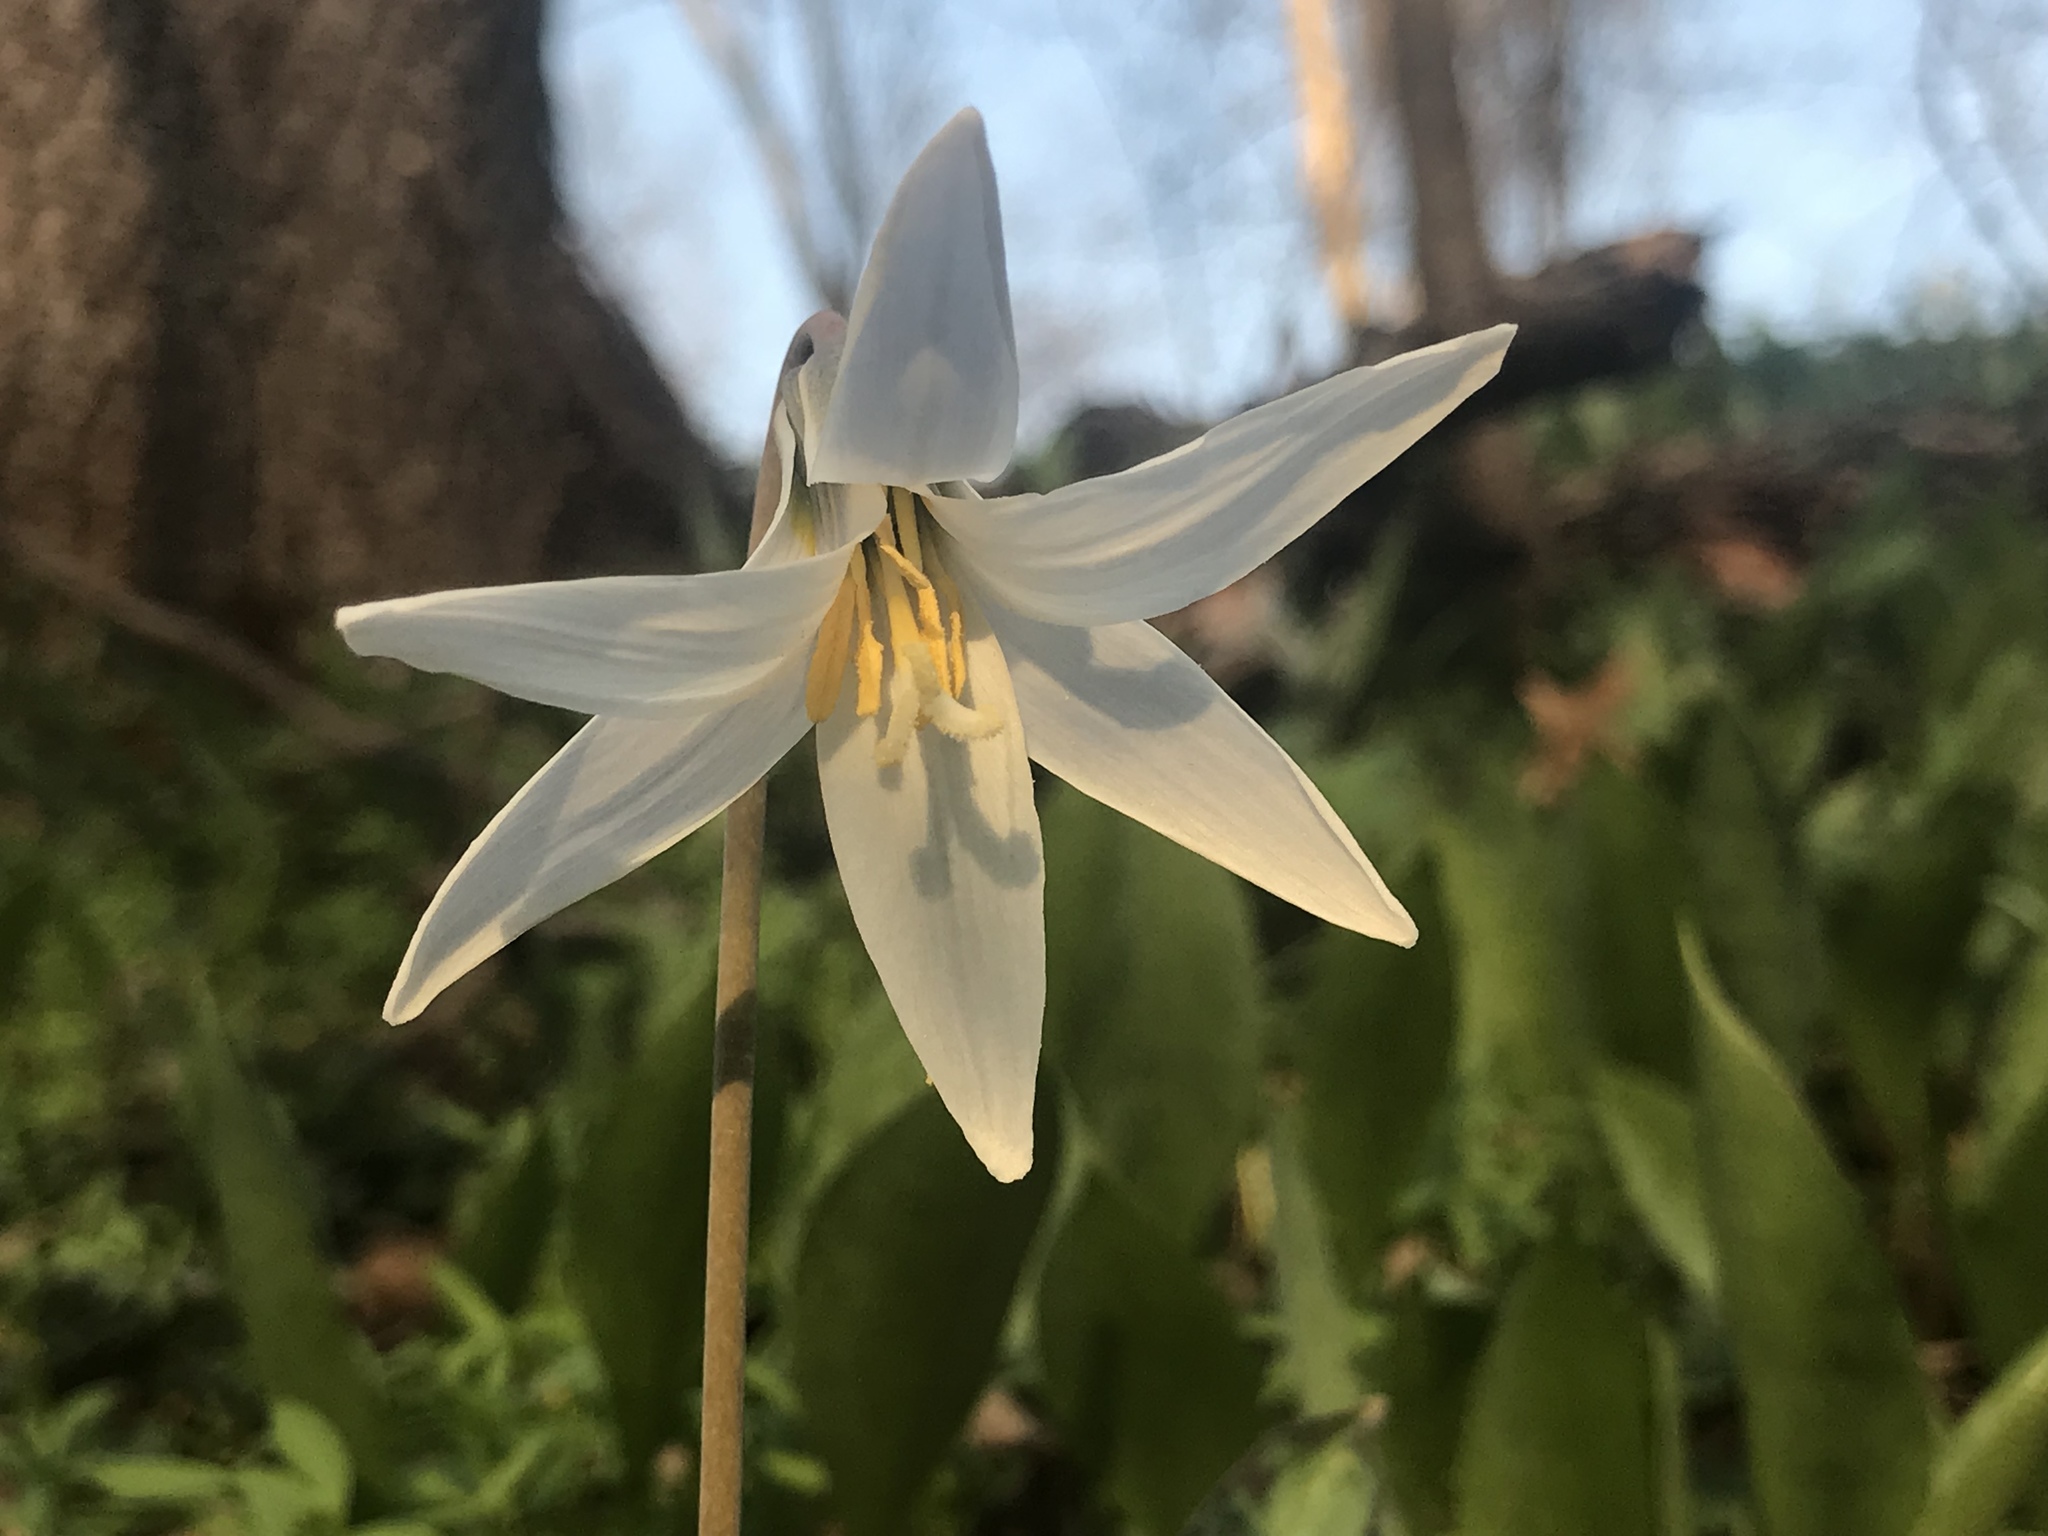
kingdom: Plantae
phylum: Tracheophyta
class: Liliopsida
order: Liliales
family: Liliaceae
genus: Erythronium
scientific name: Erythronium albidum
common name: White trout-lily
